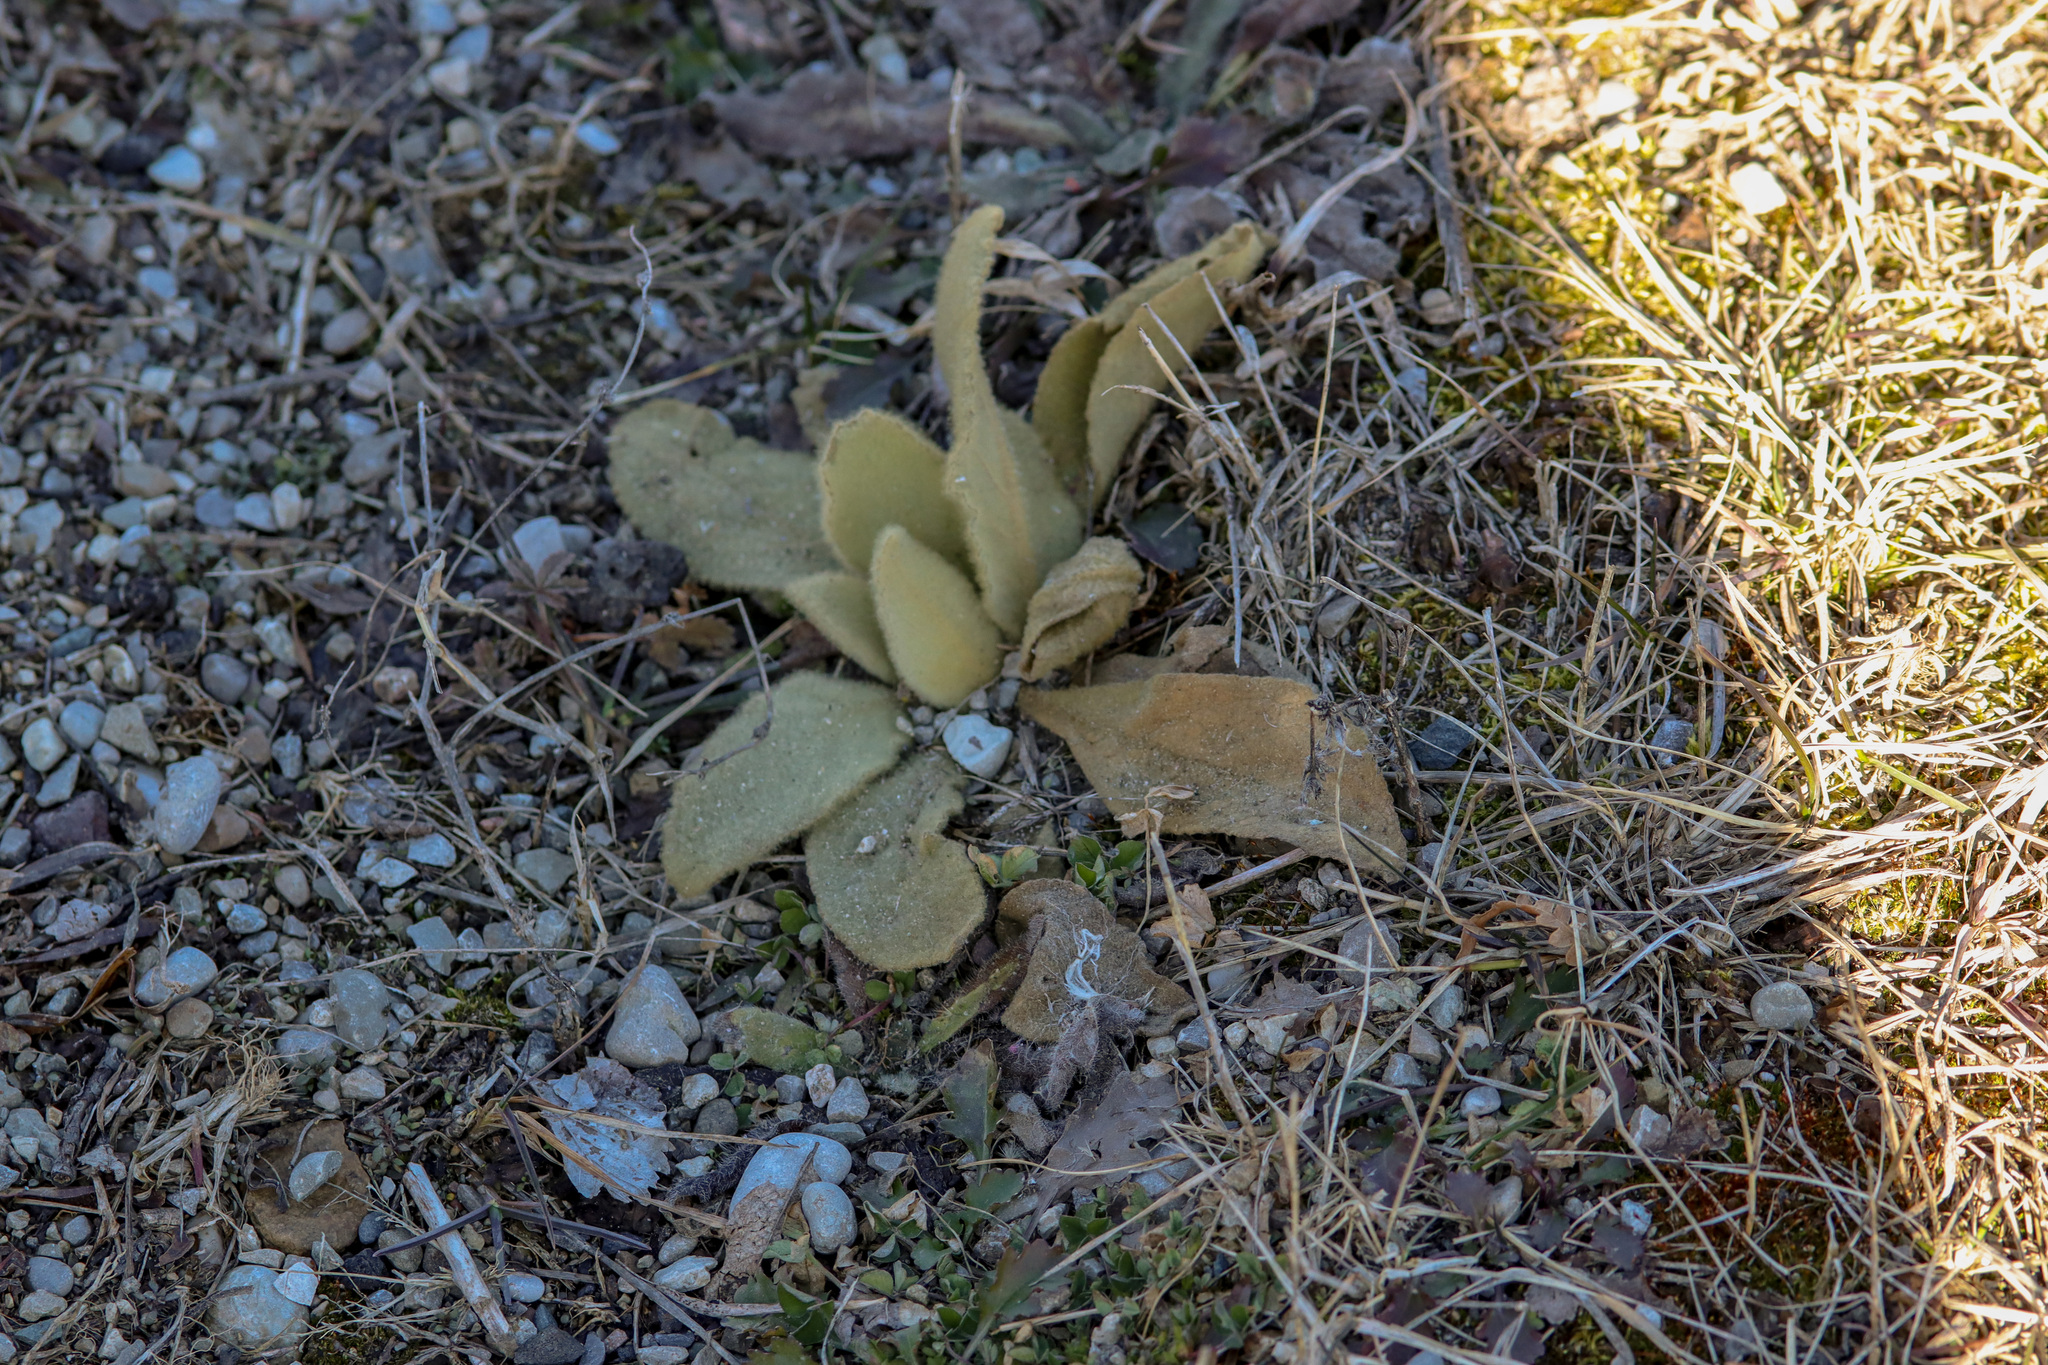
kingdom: Plantae
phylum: Tracheophyta
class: Magnoliopsida
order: Lamiales
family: Scrophulariaceae
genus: Verbascum
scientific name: Verbascum thapsus
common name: Common mullein
